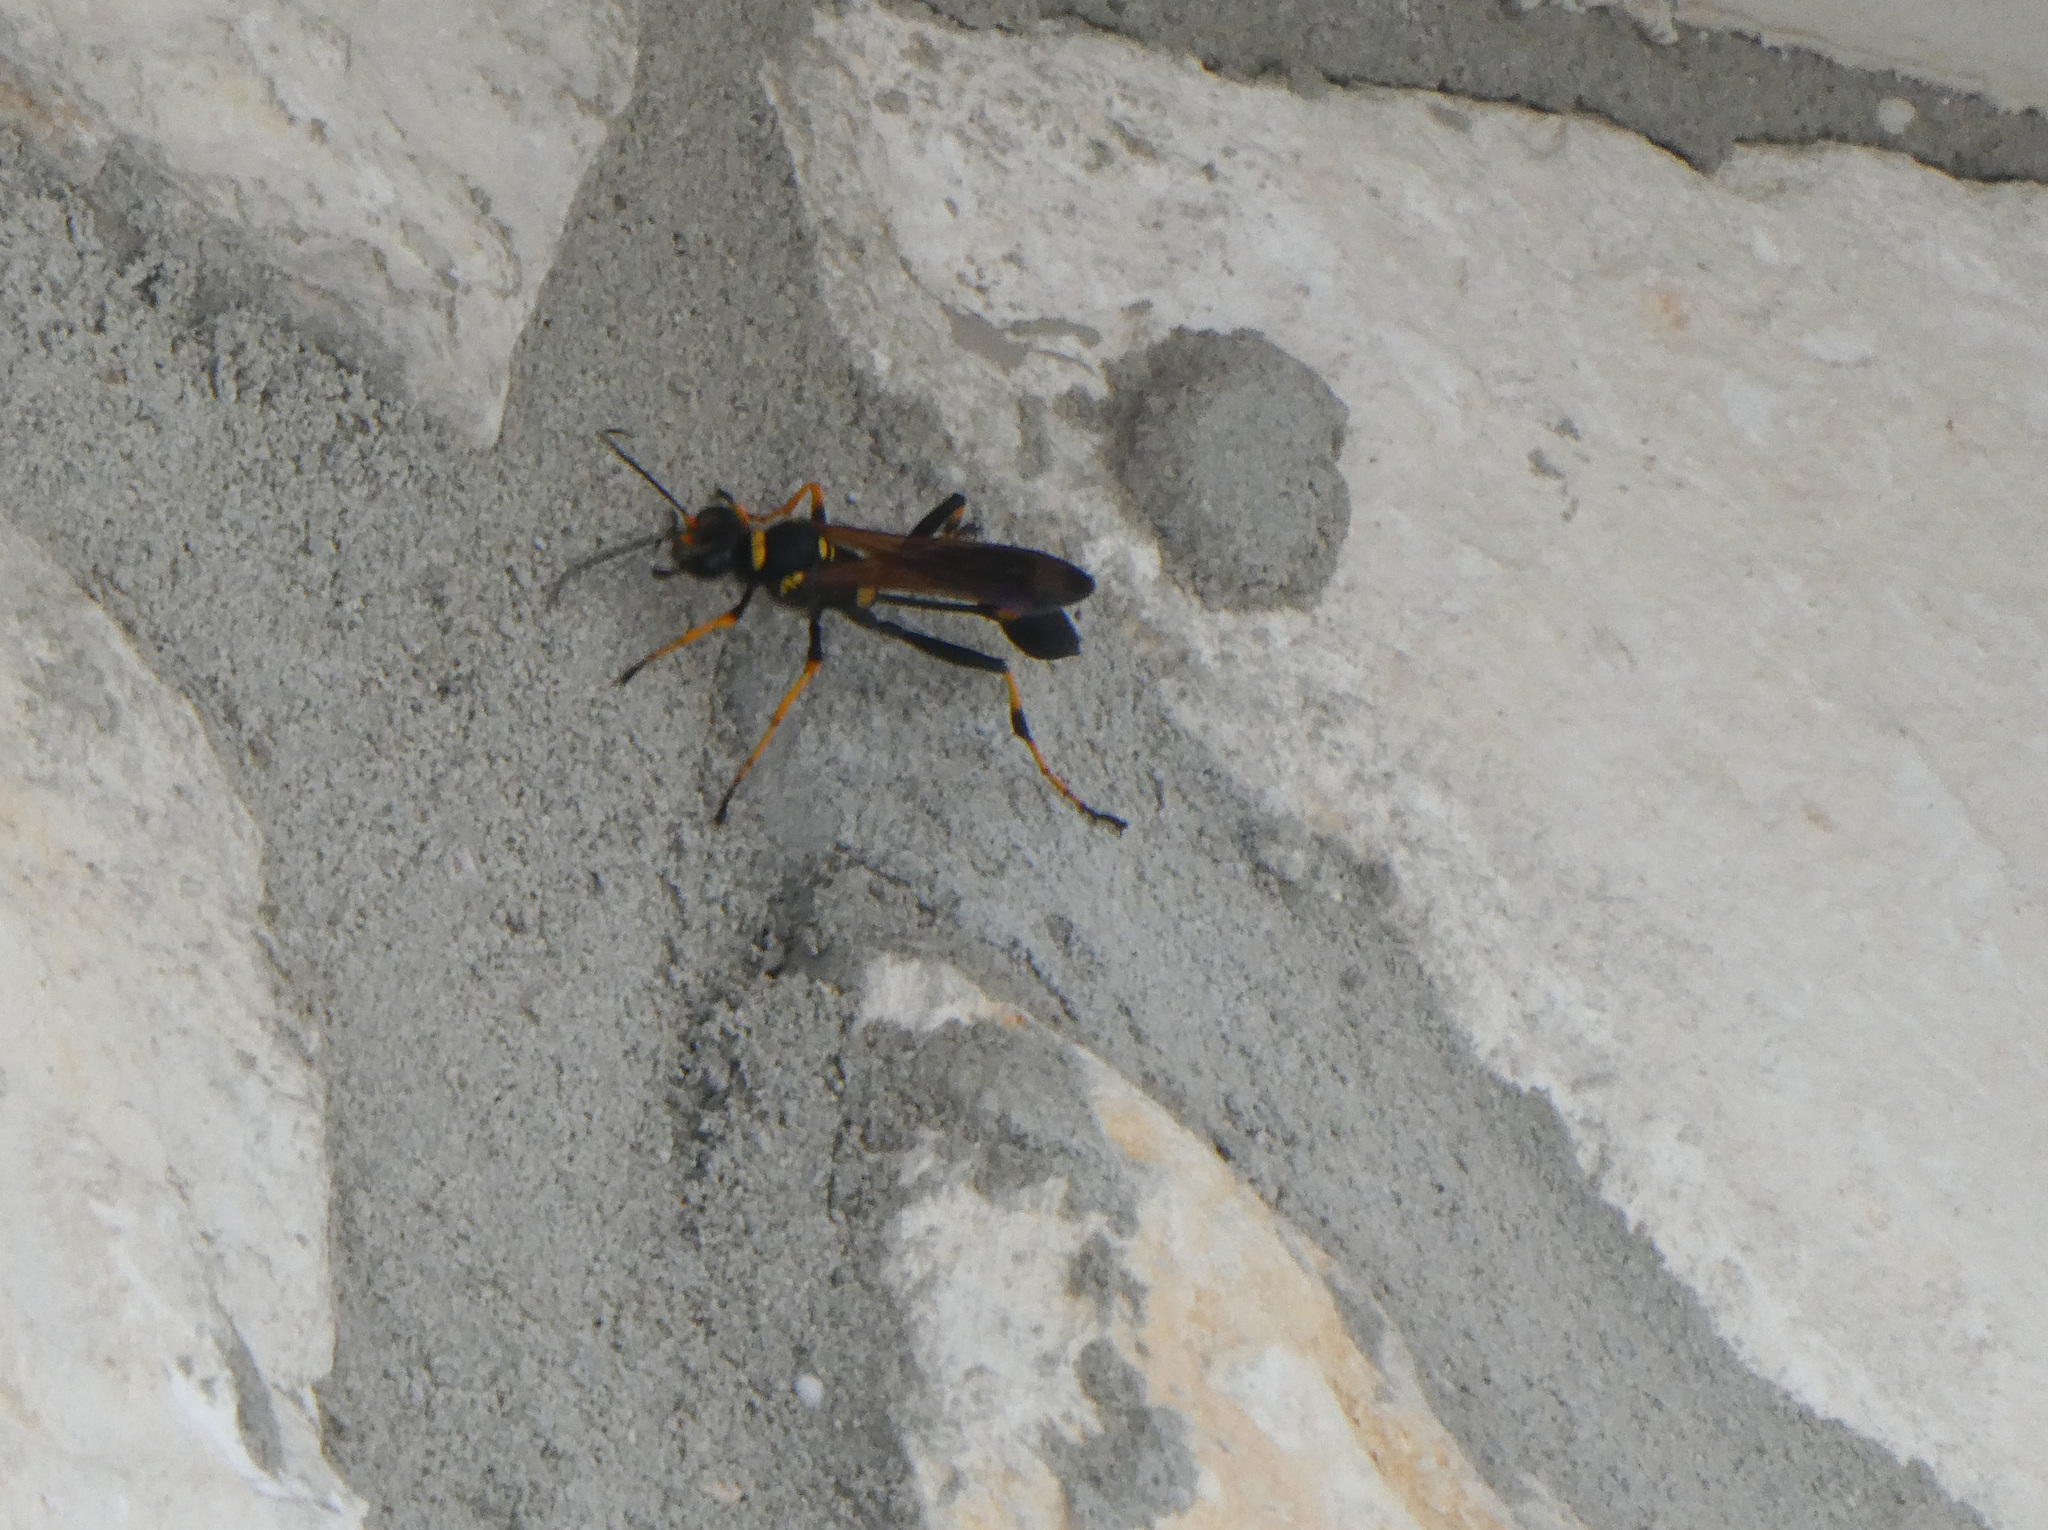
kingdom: Animalia
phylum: Arthropoda
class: Insecta
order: Hymenoptera
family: Sphecidae
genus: Sceliphron
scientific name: Sceliphron caementarium
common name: Mud dauber
